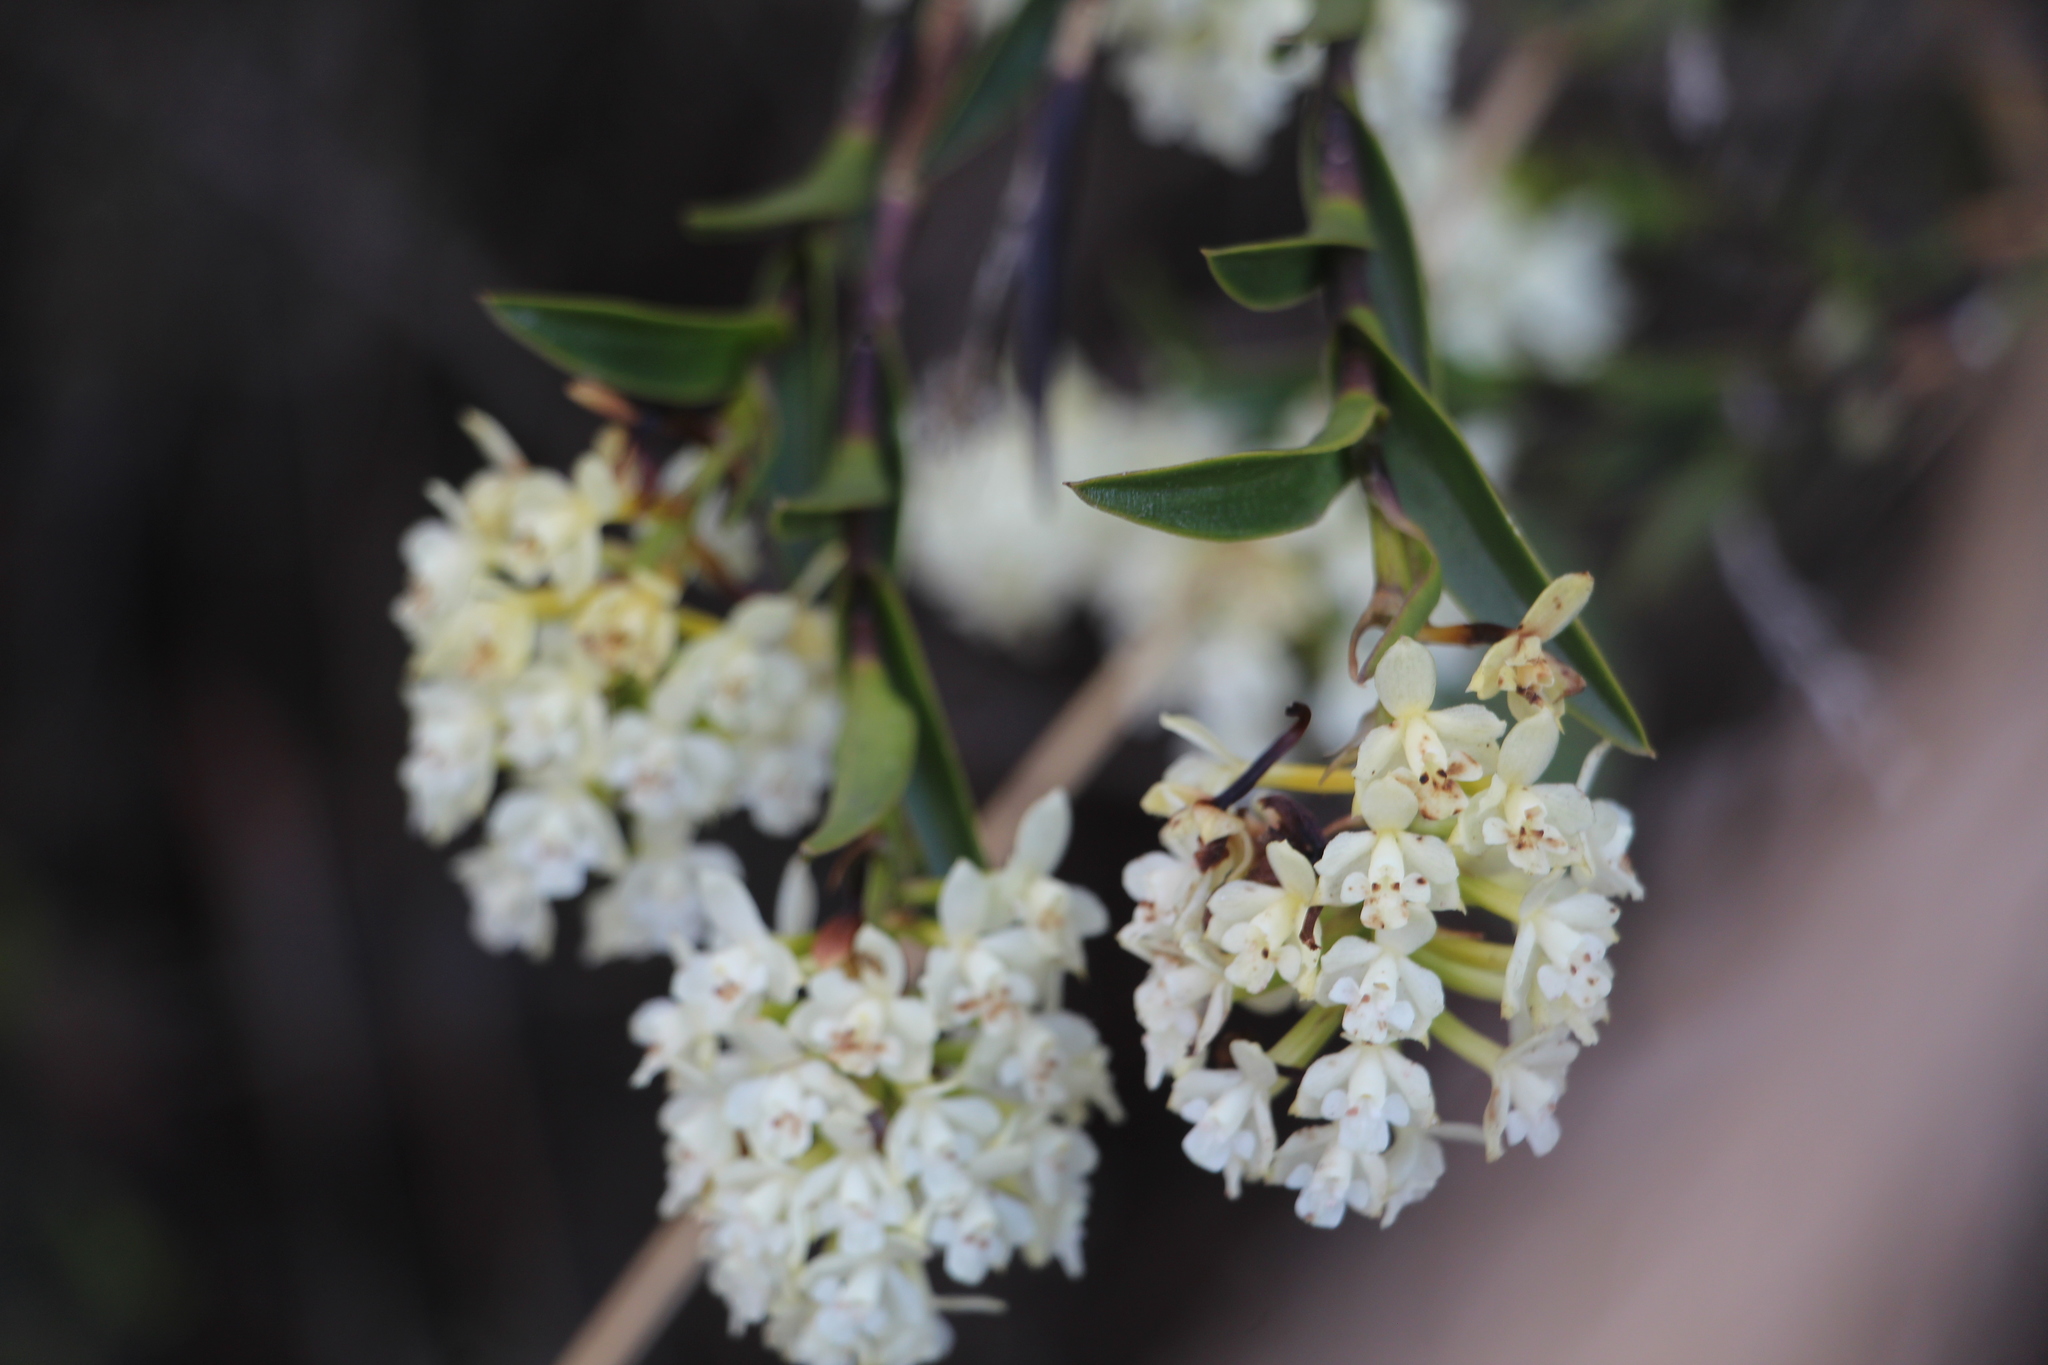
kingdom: Plantae
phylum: Tracheophyta
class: Liliopsida
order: Asparagales
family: Orchidaceae
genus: Epidendrum
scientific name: Epidendrum chioneum
